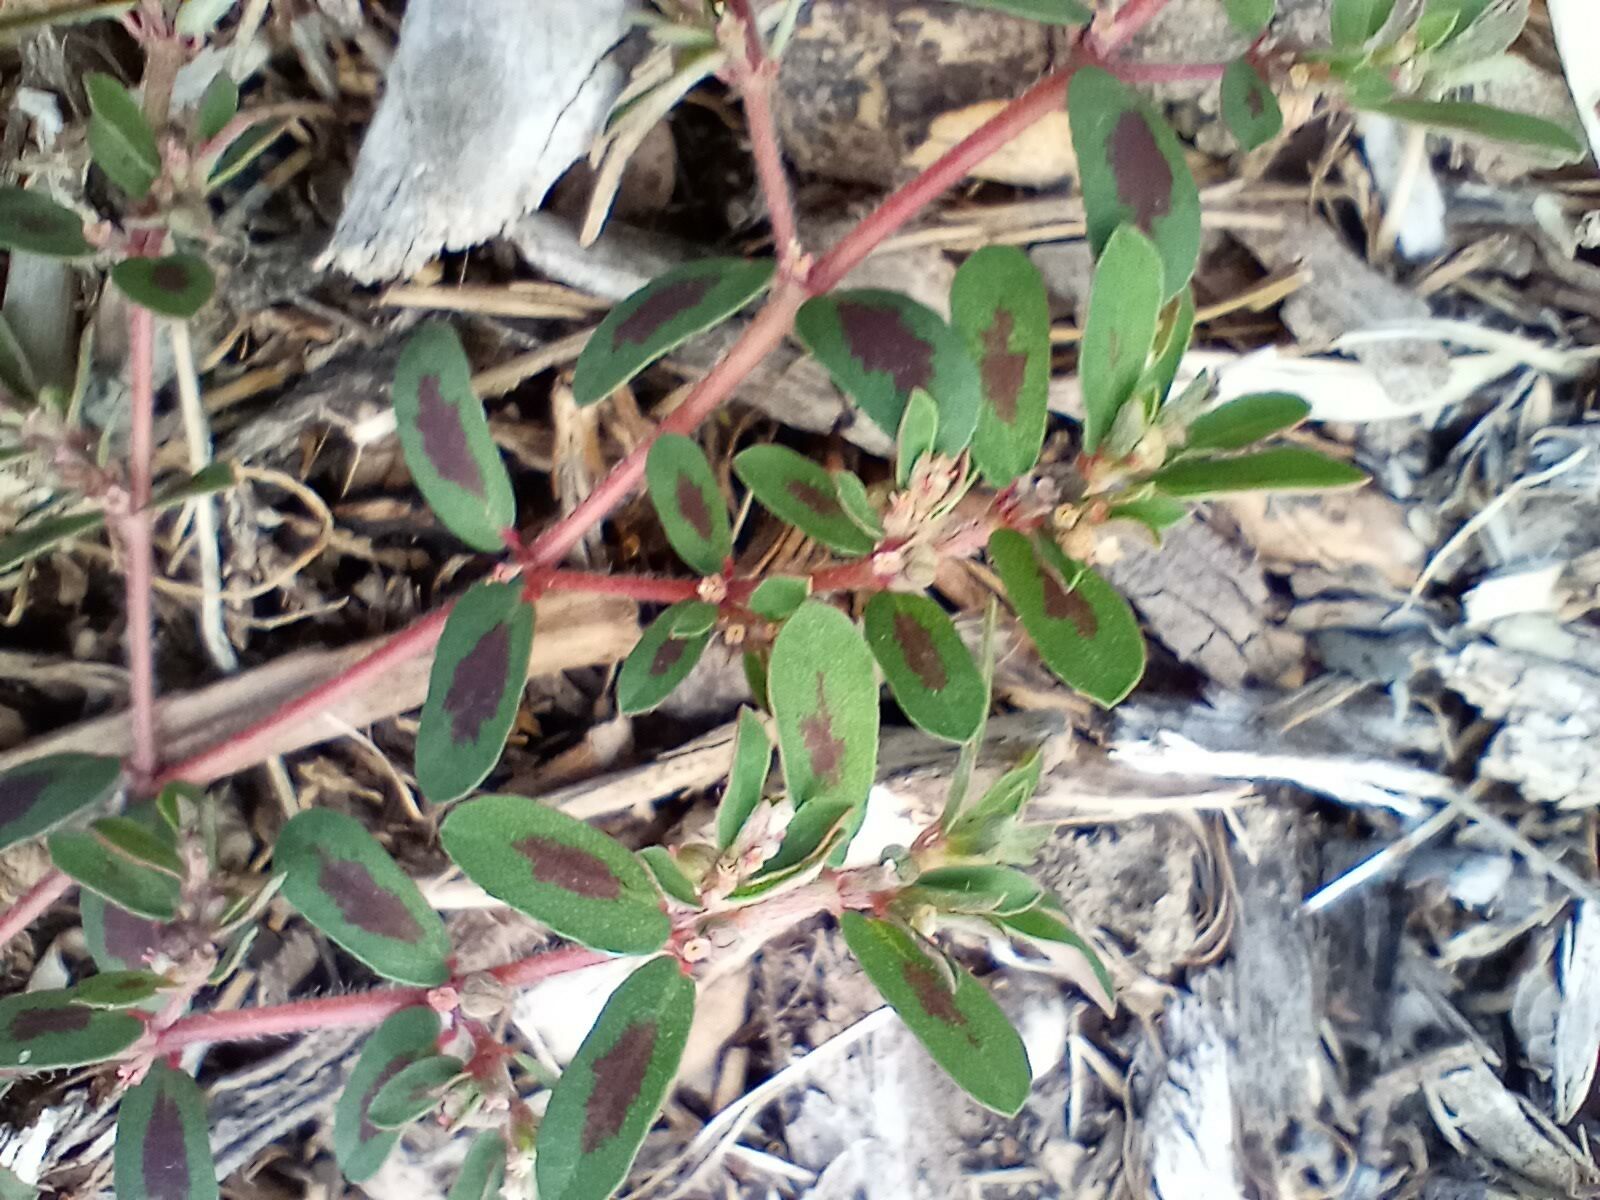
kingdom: Plantae
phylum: Tracheophyta
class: Magnoliopsida
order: Malpighiales
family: Euphorbiaceae
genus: Euphorbia
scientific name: Euphorbia maculata
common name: Spotted spurge
